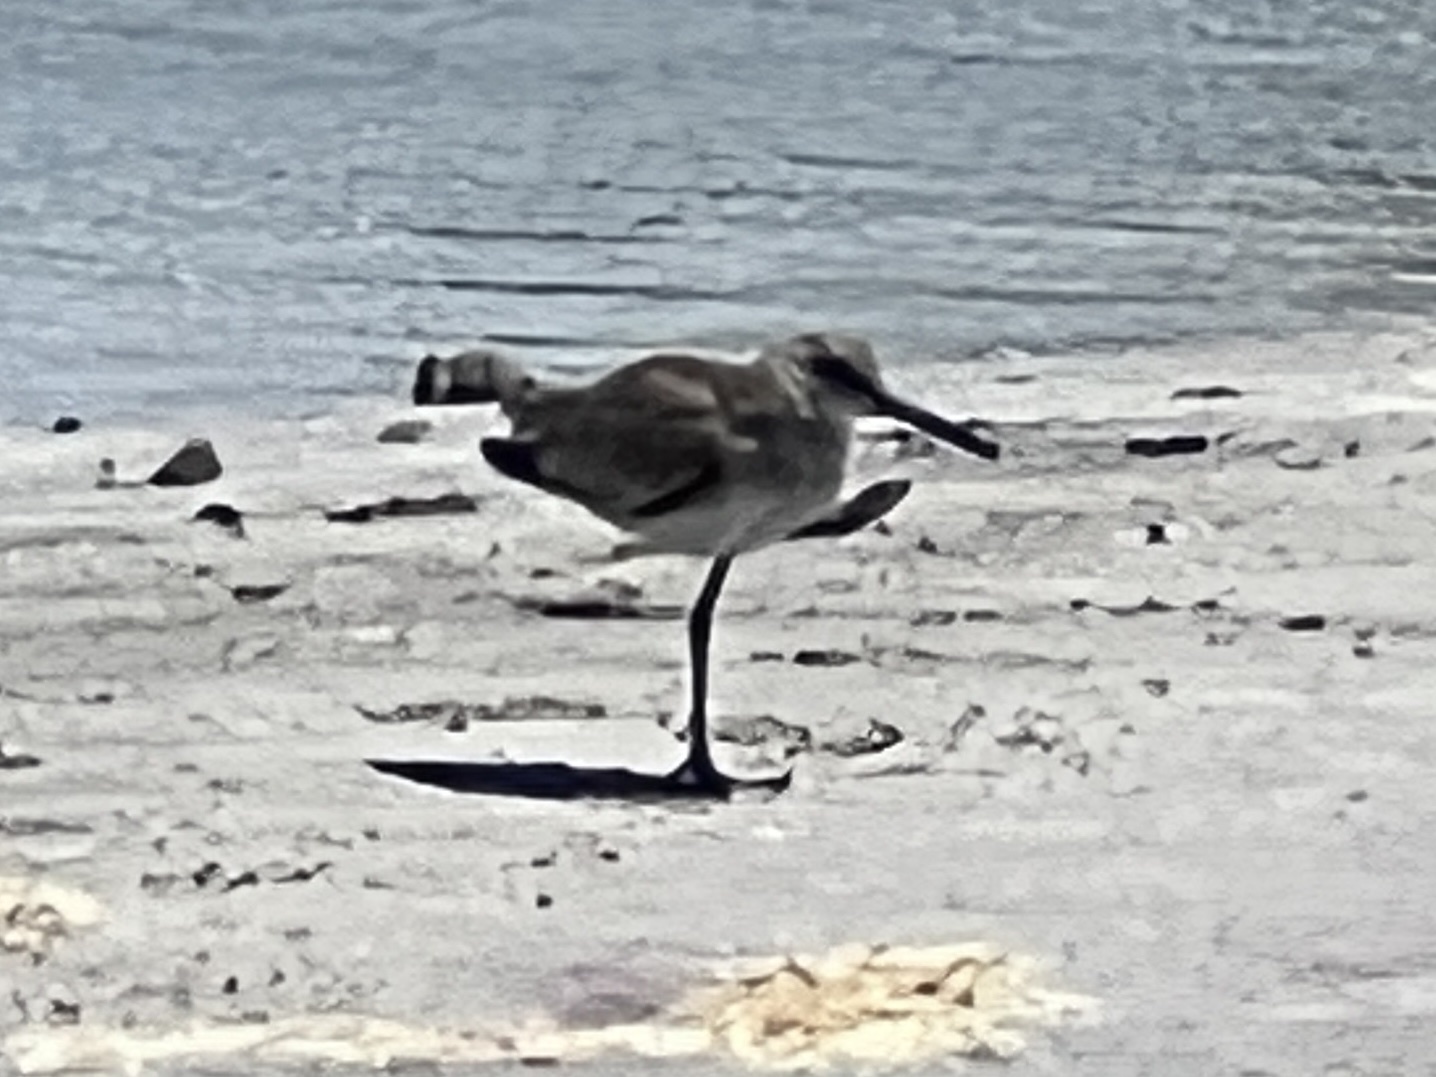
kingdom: Animalia
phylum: Chordata
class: Aves
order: Charadriiformes
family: Scolopacidae
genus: Tringa
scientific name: Tringa semipalmata
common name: Willet
